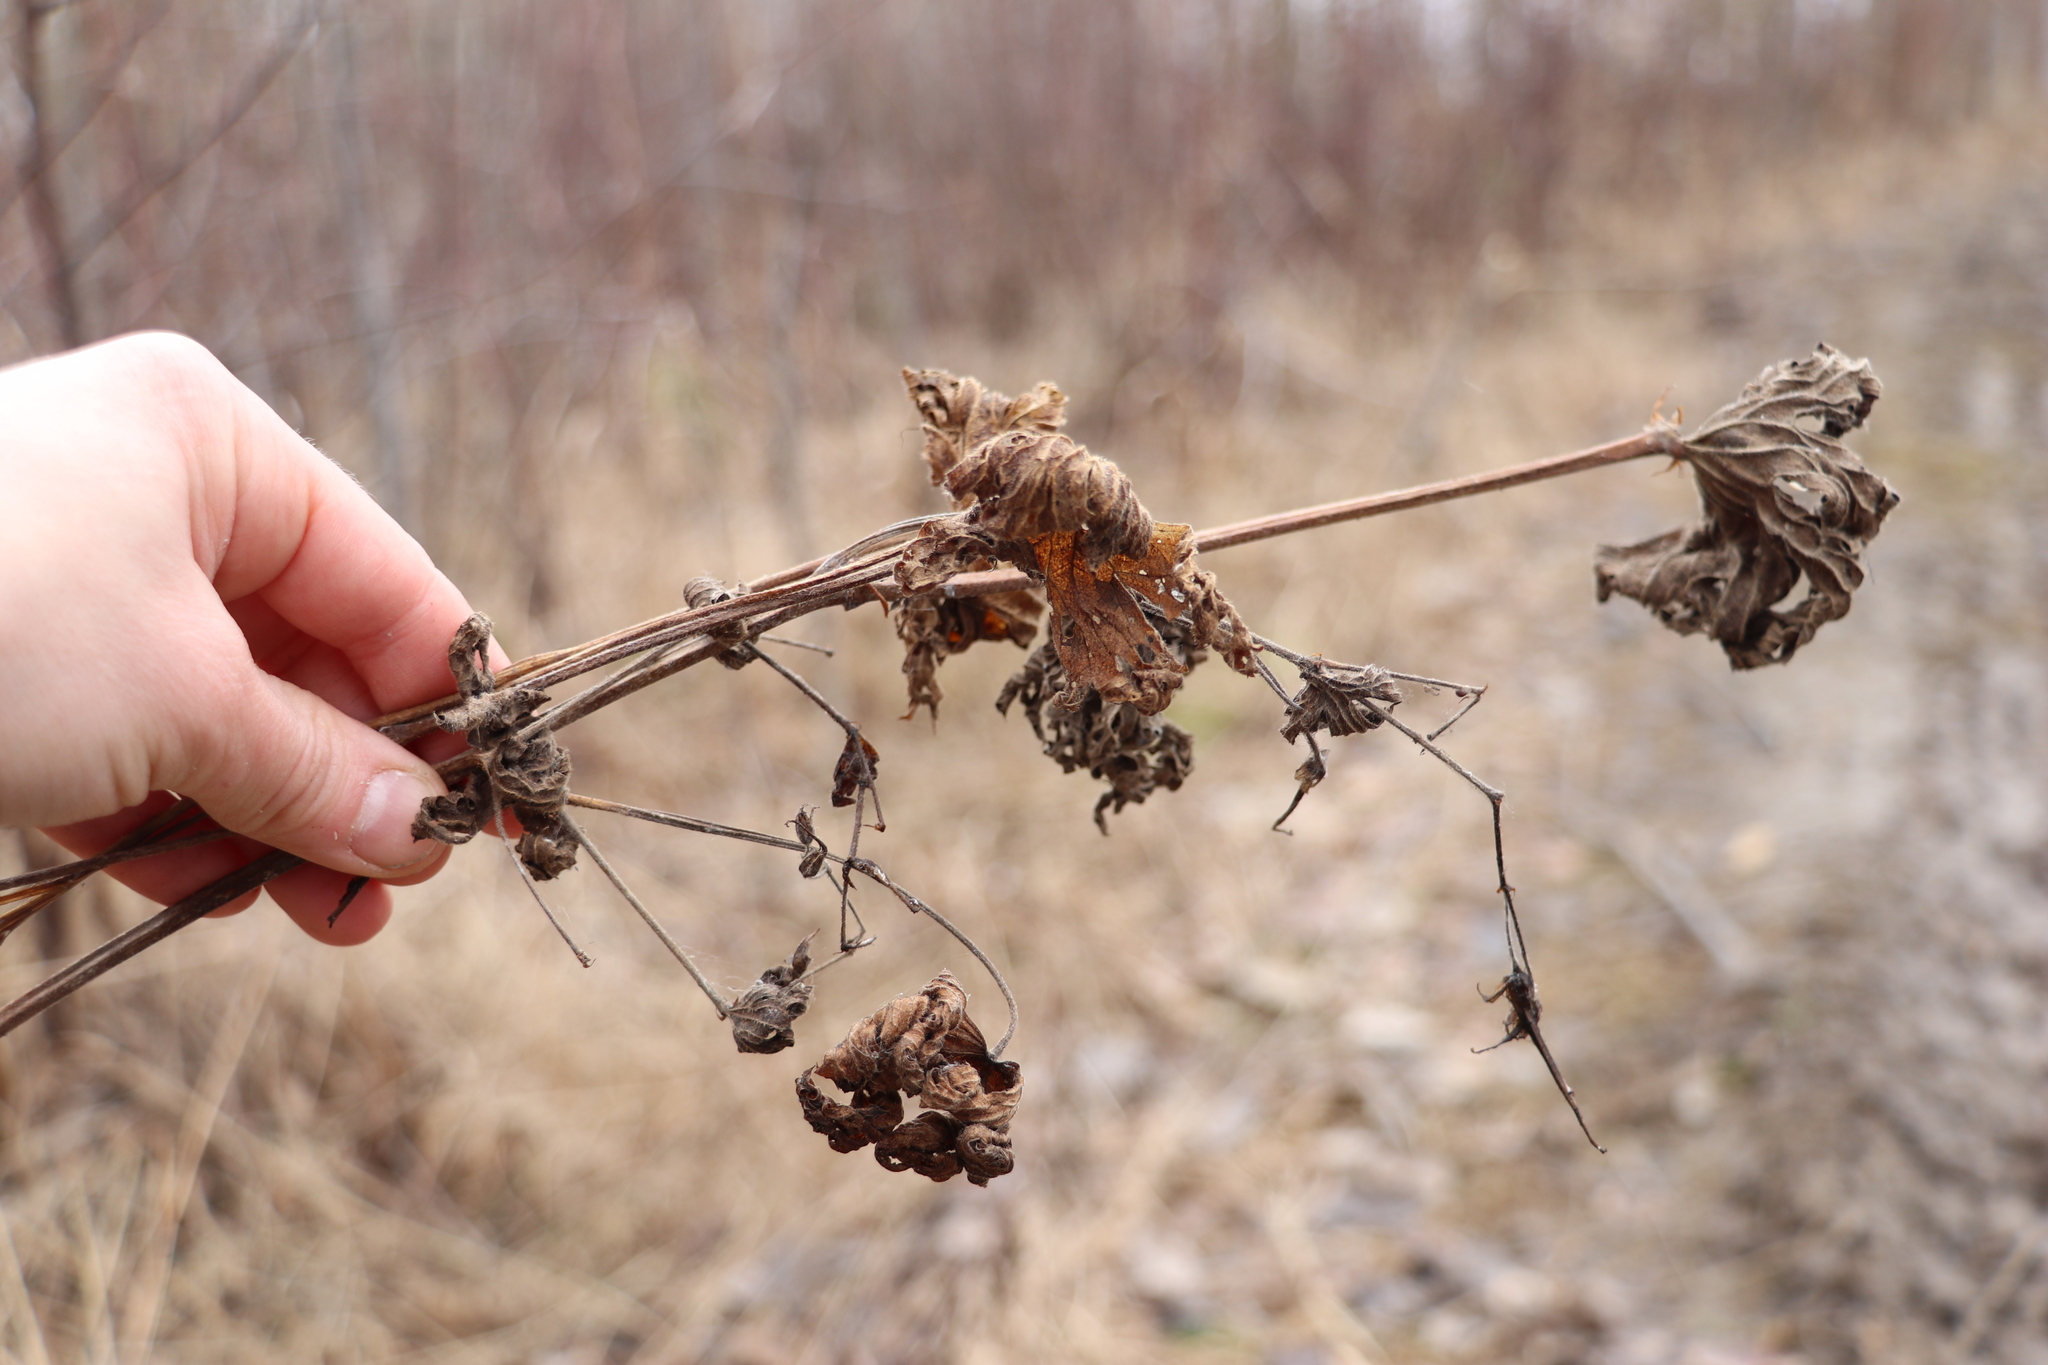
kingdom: Plantae
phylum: Tracheophyta
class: Magnoliopsida
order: Geraniales
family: Geraniaceae
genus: Geranium
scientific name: Geranium pratense
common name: Meadow crane's-bill
